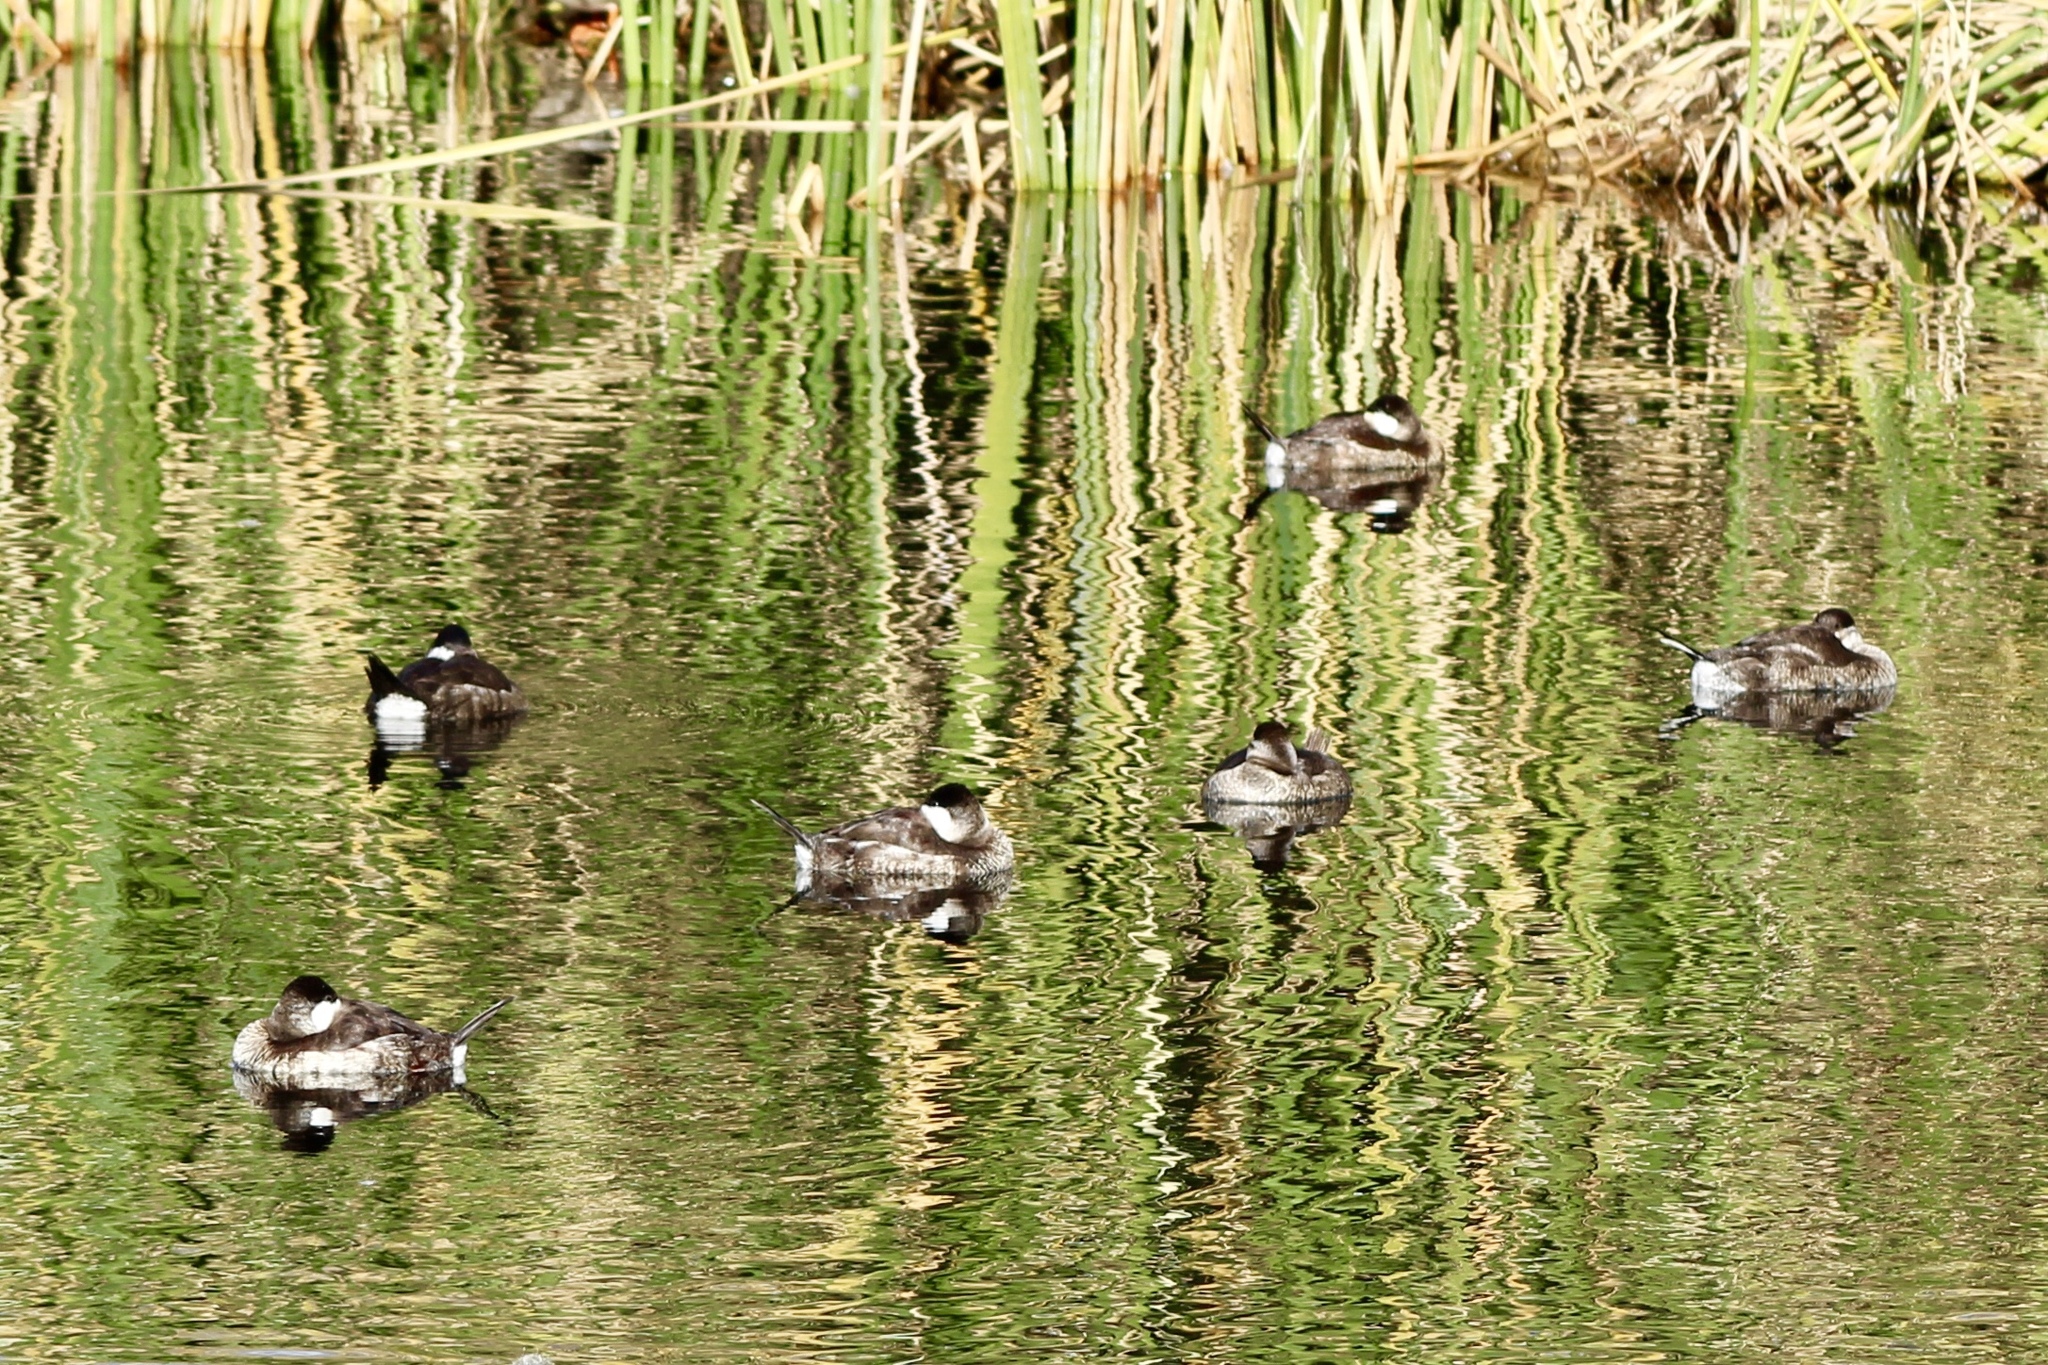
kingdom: Animalia
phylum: Chordata
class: Aves
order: Anseriformes
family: Anatidae
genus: Oxyura
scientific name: Oxyura jamaicensis
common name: Ruddy duck
